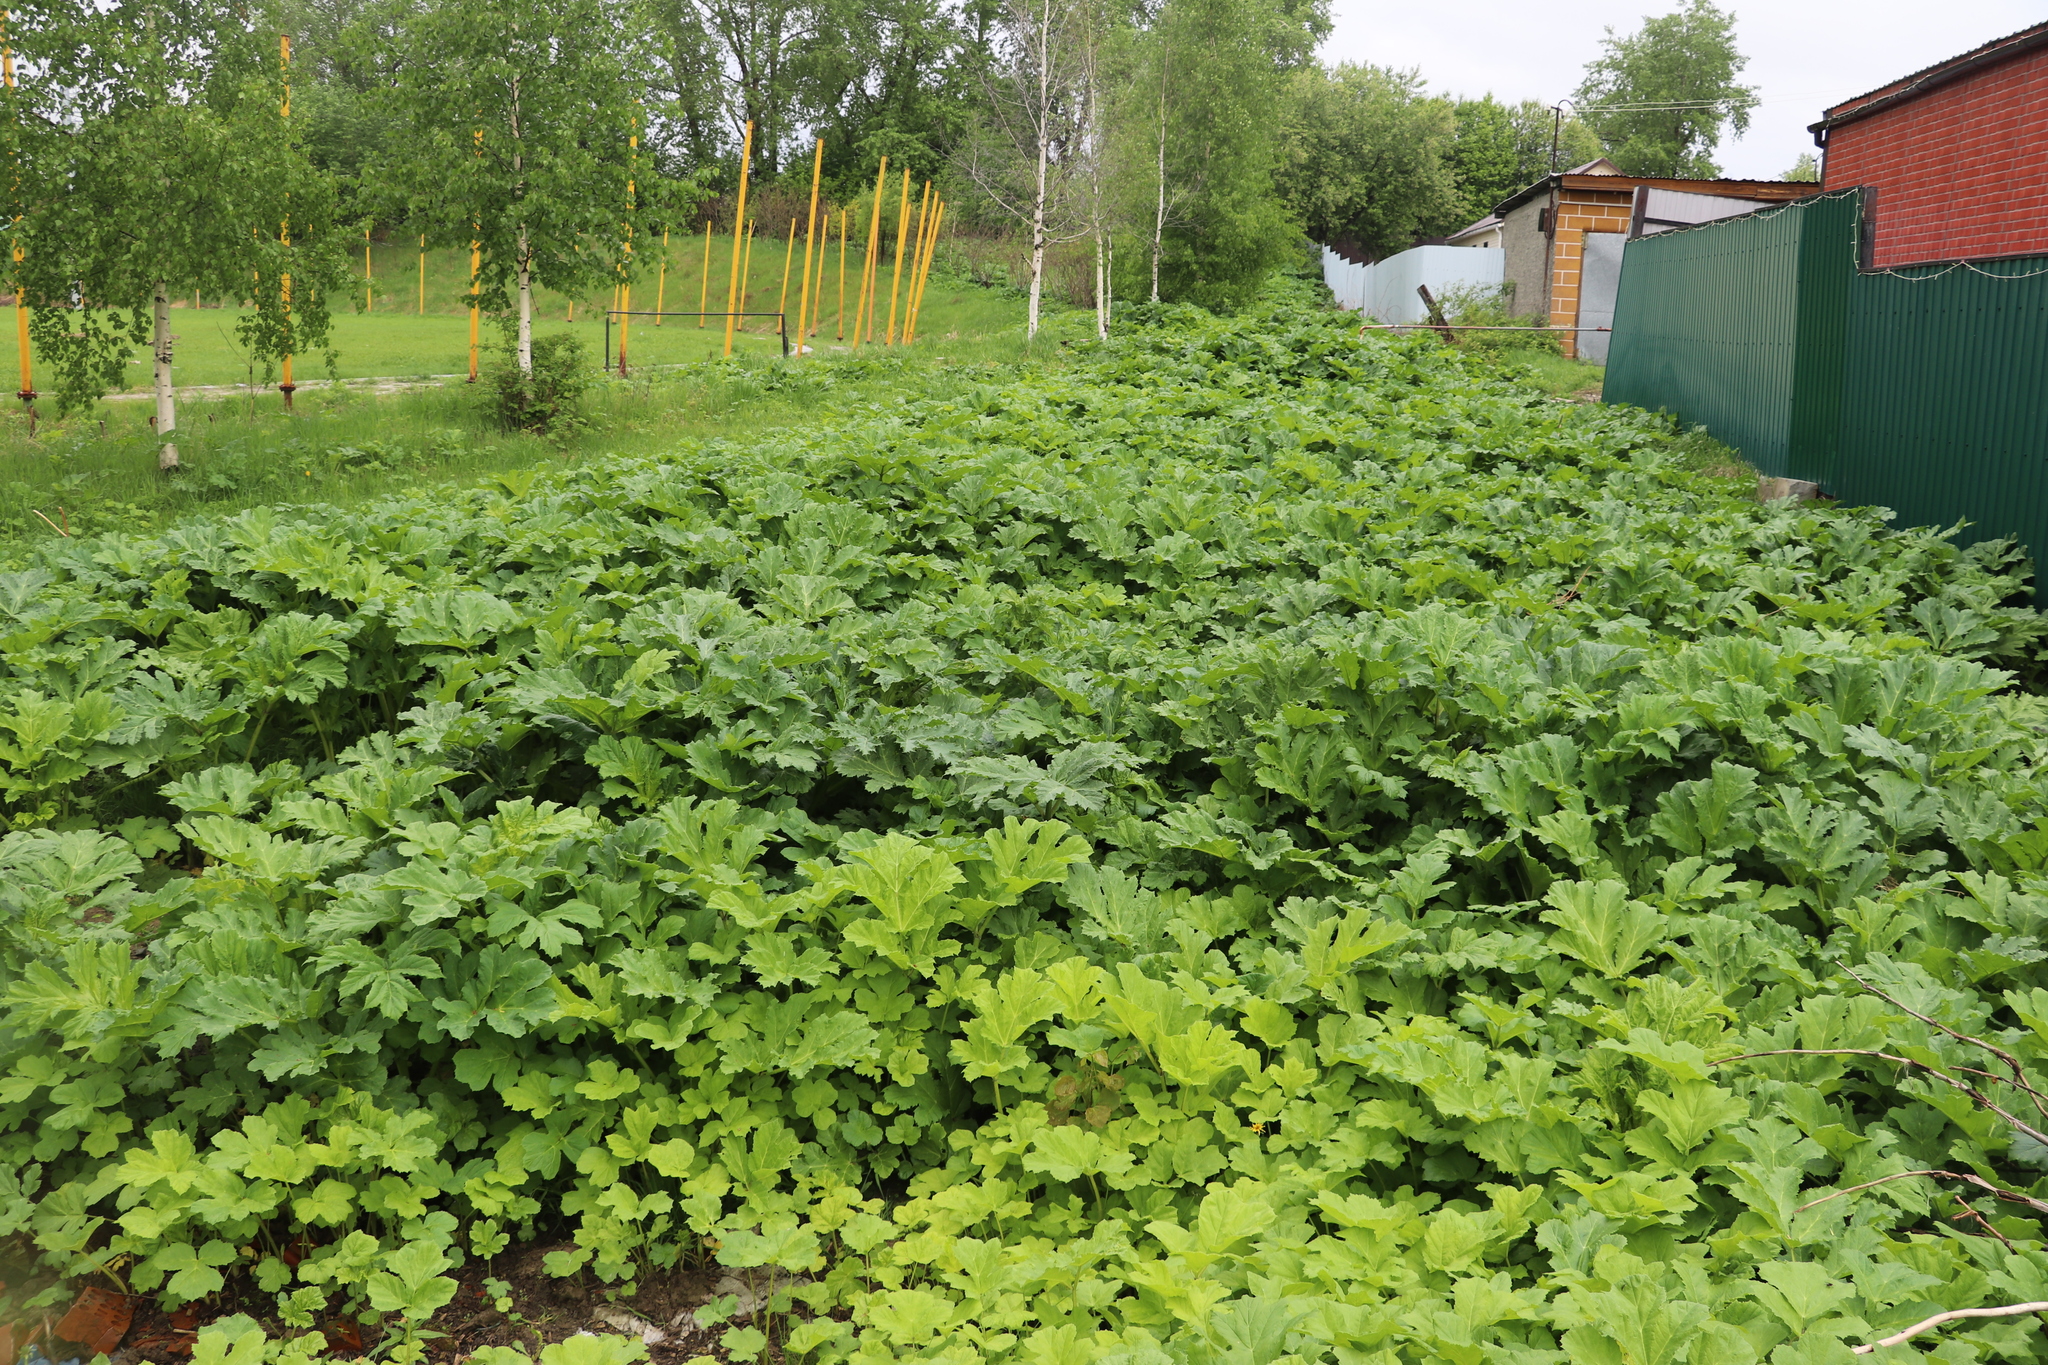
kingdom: Plantae
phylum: Tracheophyta
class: Magnoliopsida
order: Apiales
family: Apiaceae
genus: Heracleum
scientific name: Heracleum sosnowskyi
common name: Sosnowsky's hogweed
